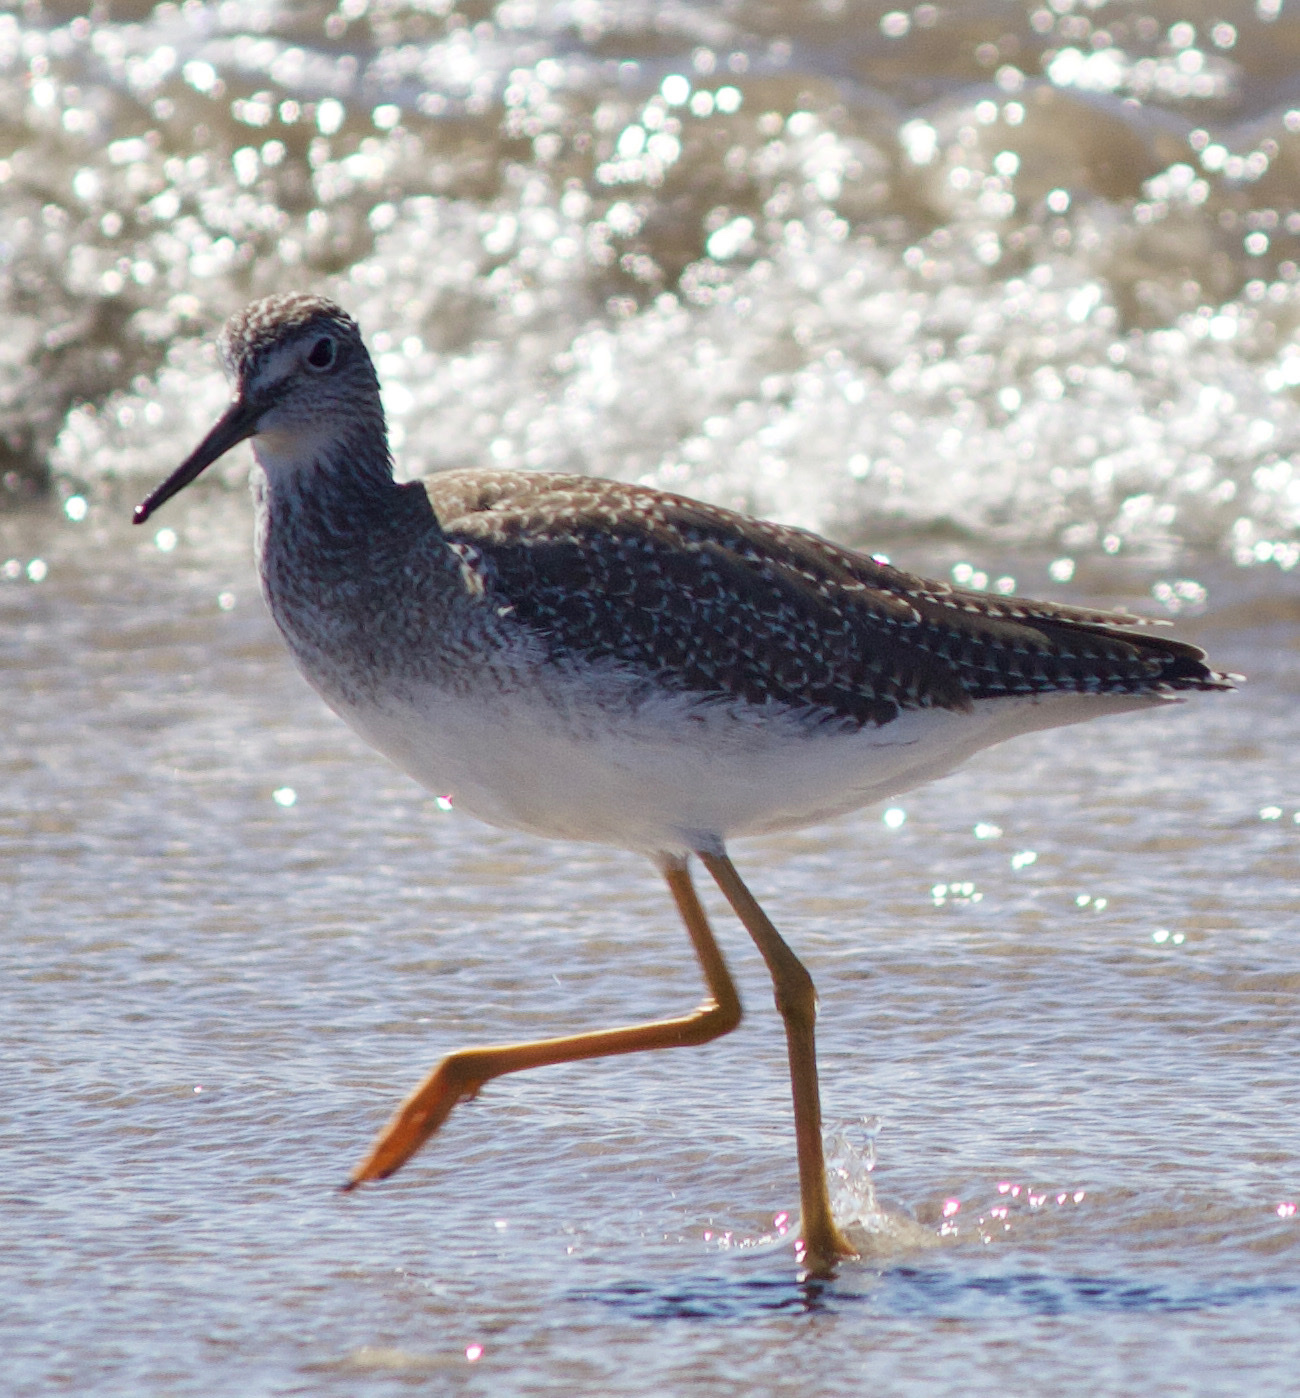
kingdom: Animalia
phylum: Chordata
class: Aves
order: Charadriiformes
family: Scolopacidae
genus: Tringa
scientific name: Tringa melanoleuca
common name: Greater yellowlegs
